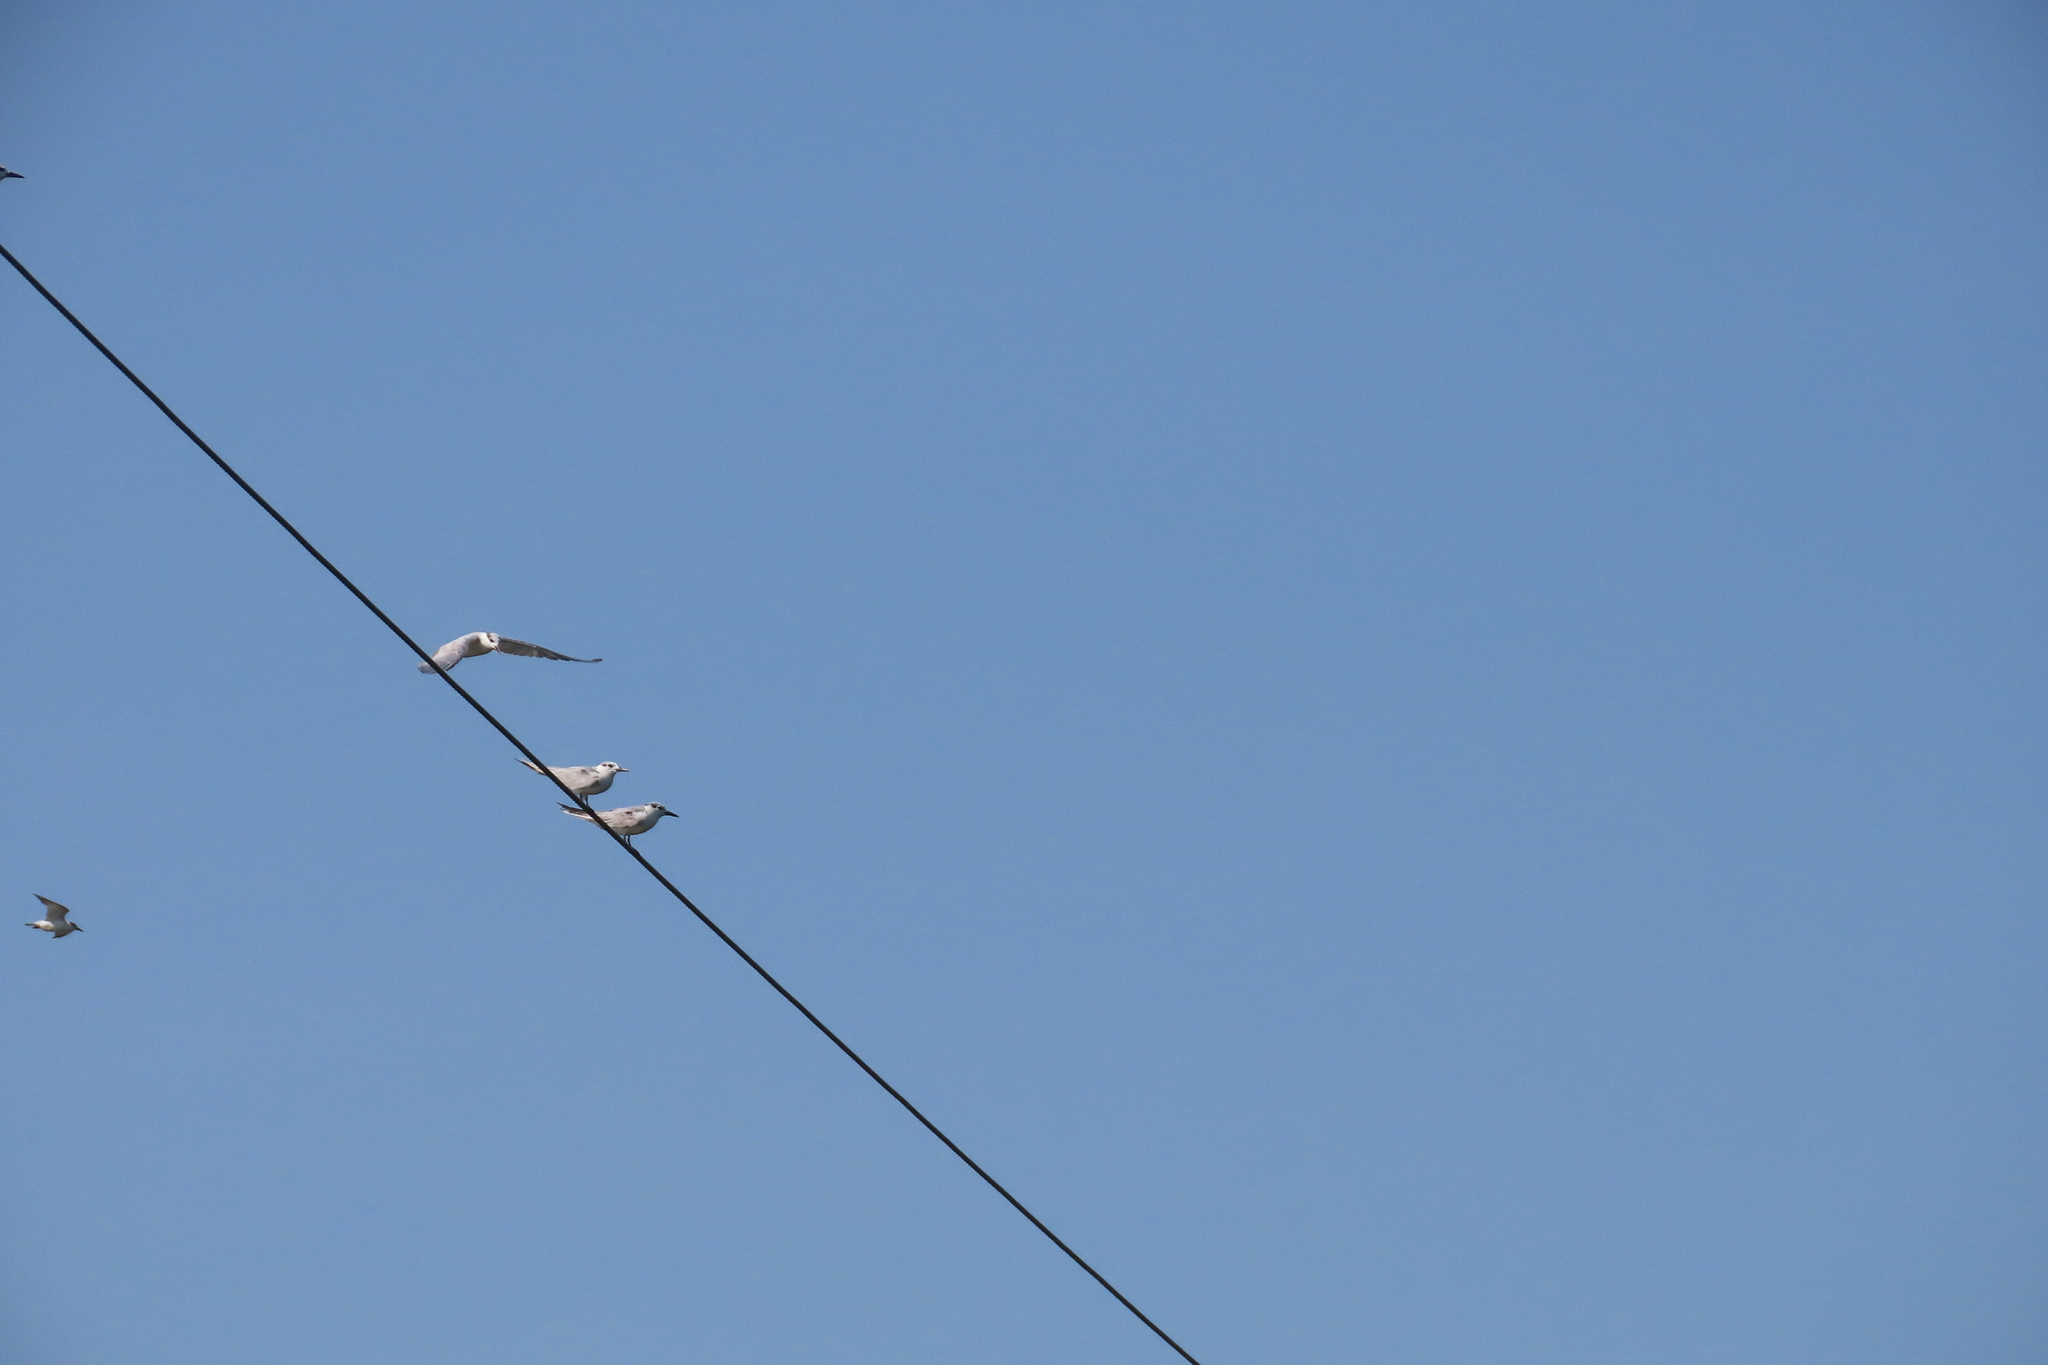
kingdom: Animalia
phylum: Chordata
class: Aves
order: Charadriiformes
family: Laridae
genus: Chlidonias
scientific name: Chlidonias hybrida
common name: Whiskered tern
